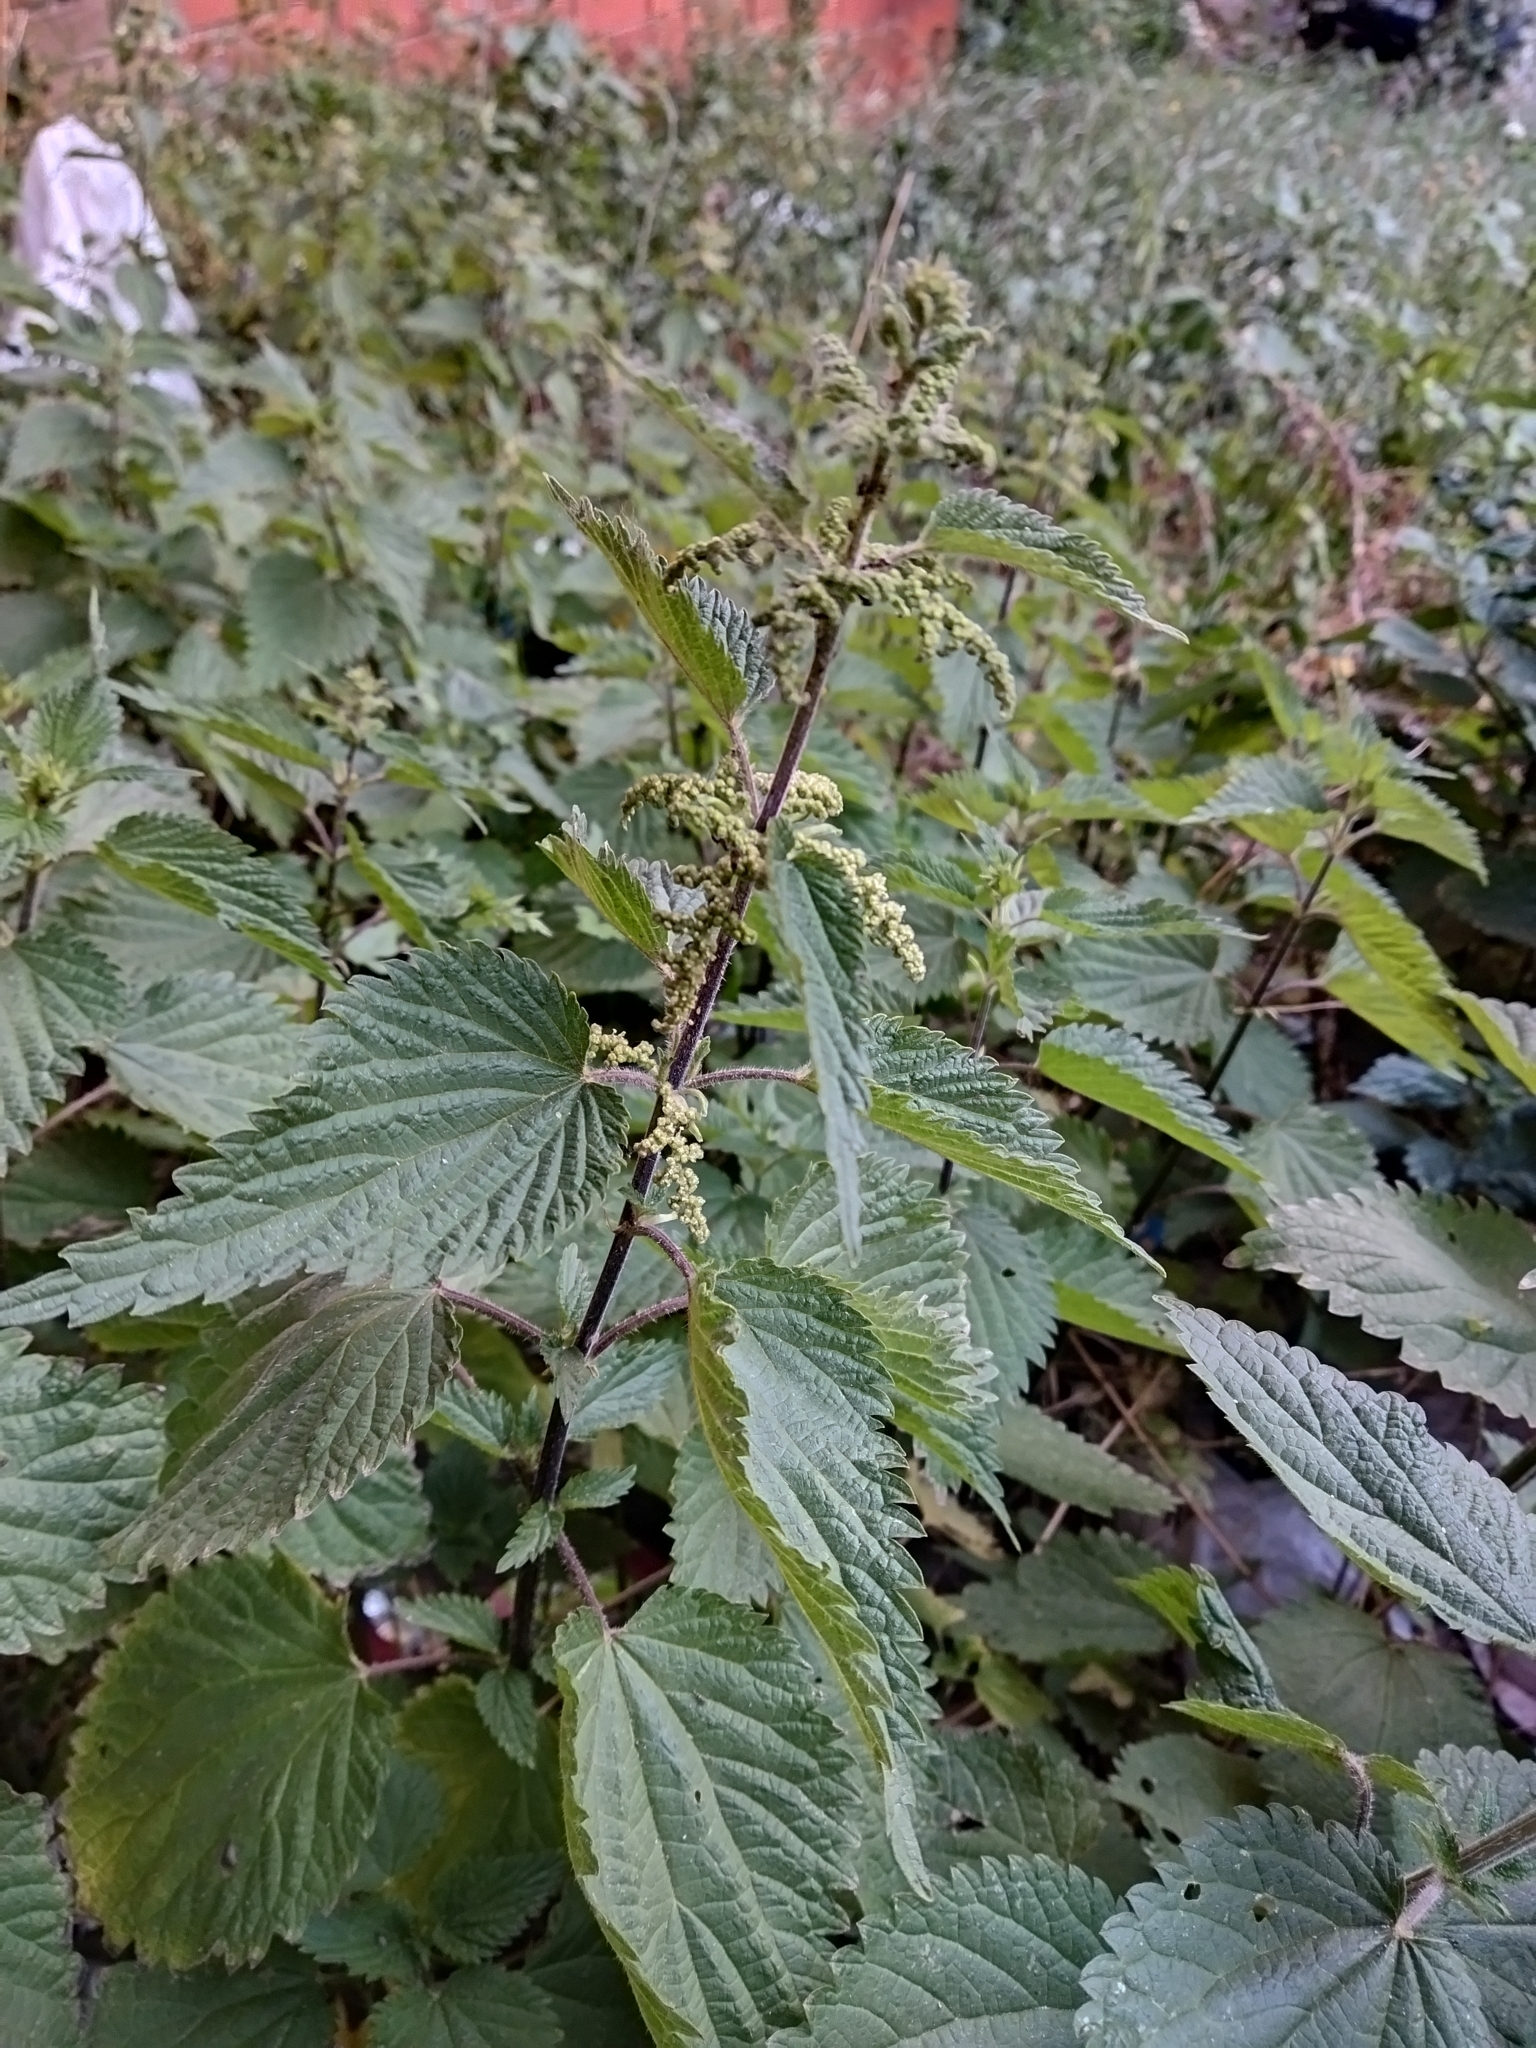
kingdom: Plantae
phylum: Tracheophyta
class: Magnoliopsida
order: Rosales
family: Urticaceae
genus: Urtica
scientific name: Urtica dioica
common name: Common nettle
